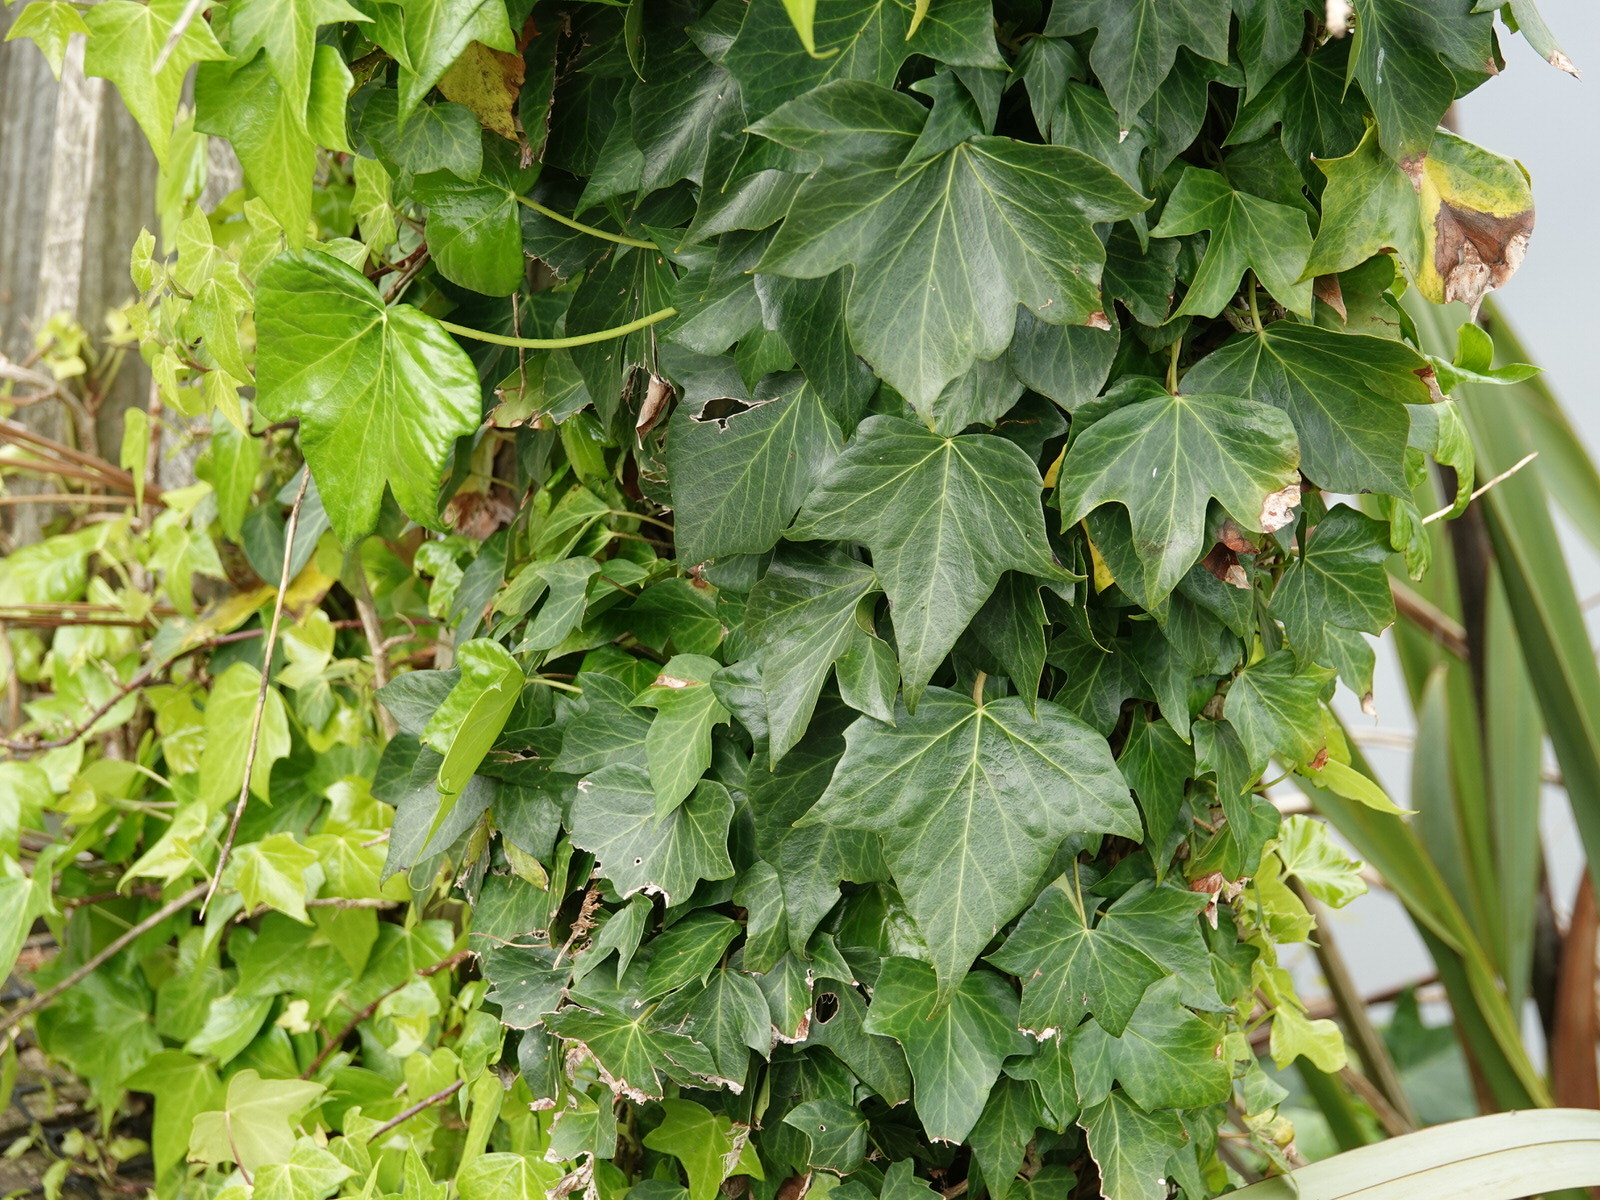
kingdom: Plantae
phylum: Tracheophyta
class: Magnoliopsida
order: Apiales
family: Araliaceae
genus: Hedera
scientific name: Hedera helix
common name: Ivy
